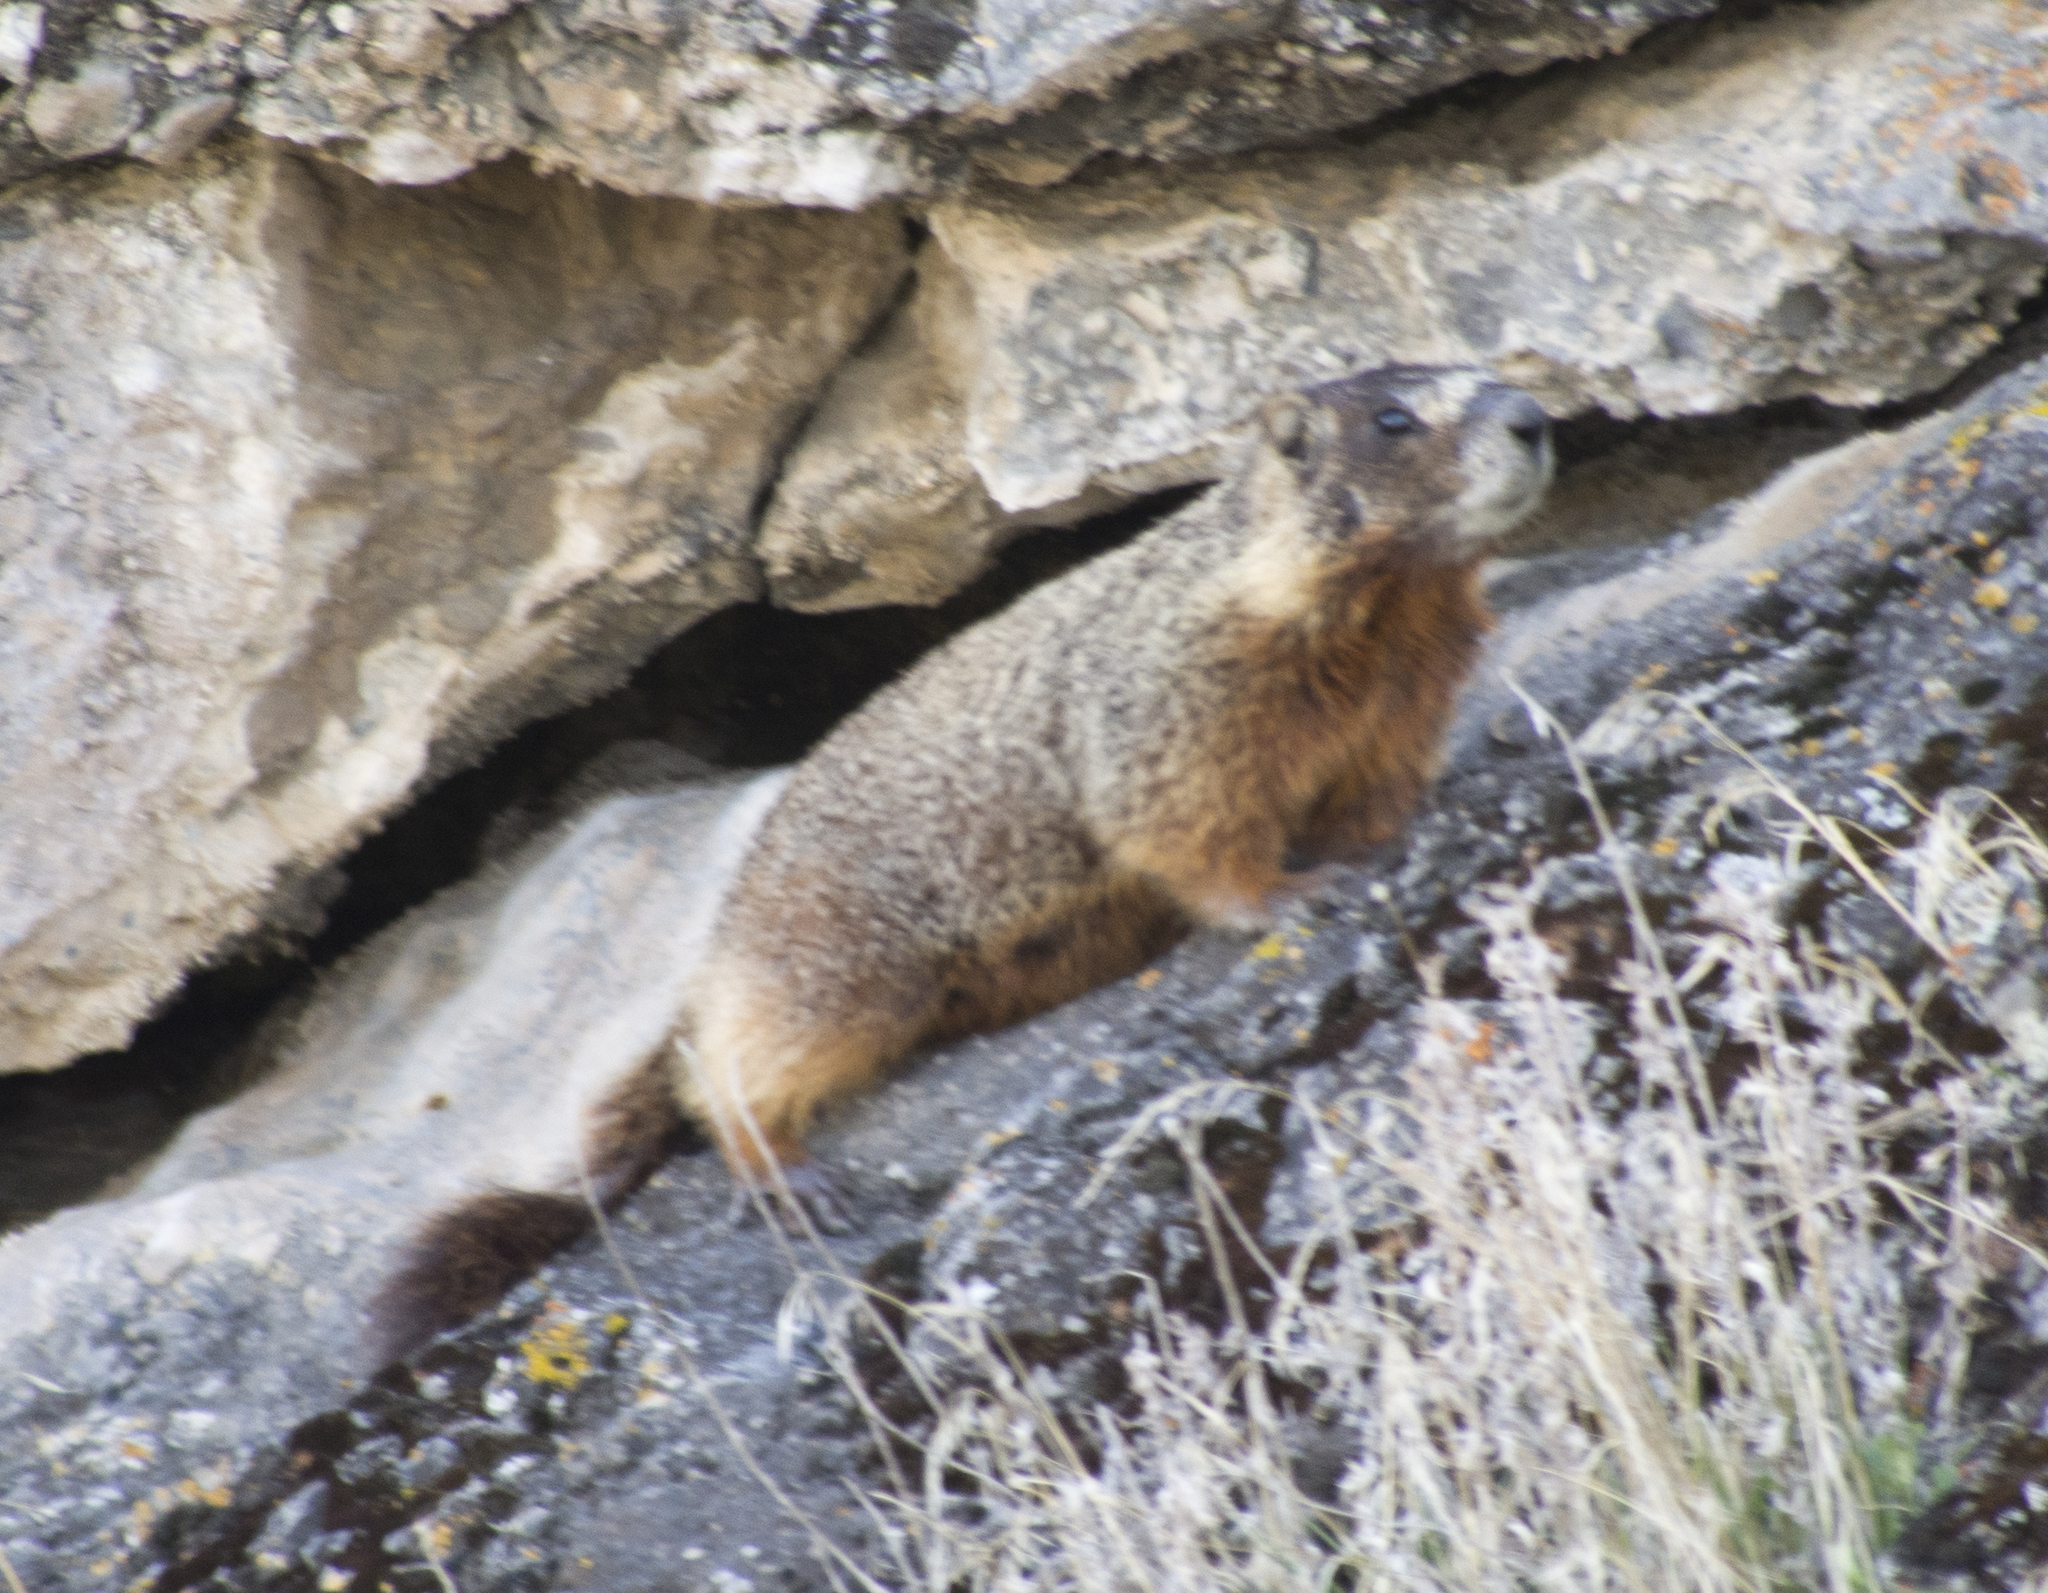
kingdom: Animalia
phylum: Chordata
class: Mammalia
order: Rodentia
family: Sciuridae
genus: Marmota
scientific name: Marmota flaviventris
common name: Yellow-bellied marmot
